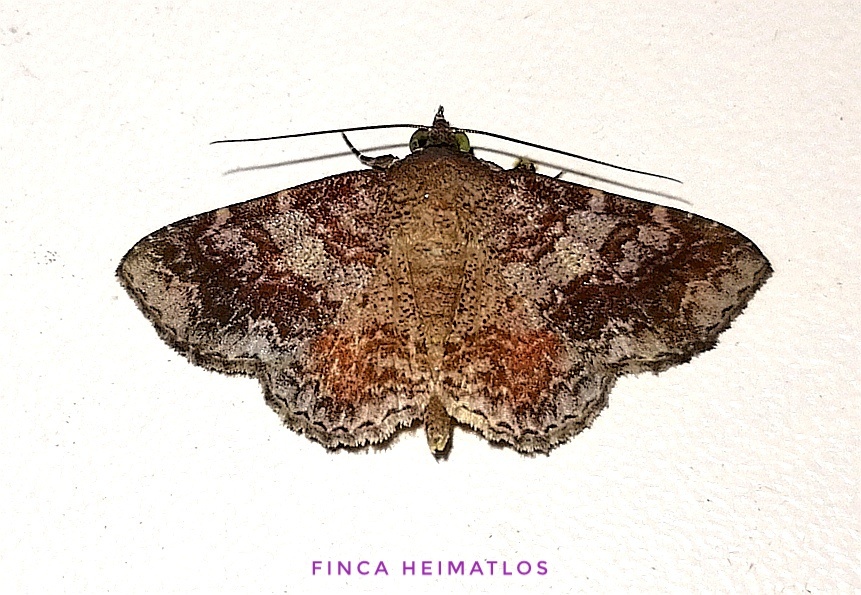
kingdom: Animalia
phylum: Arthropoda
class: Insecta
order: Lepidoptera
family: Erebidae
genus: Antiblemma
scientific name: Antiblemma alcinoe
